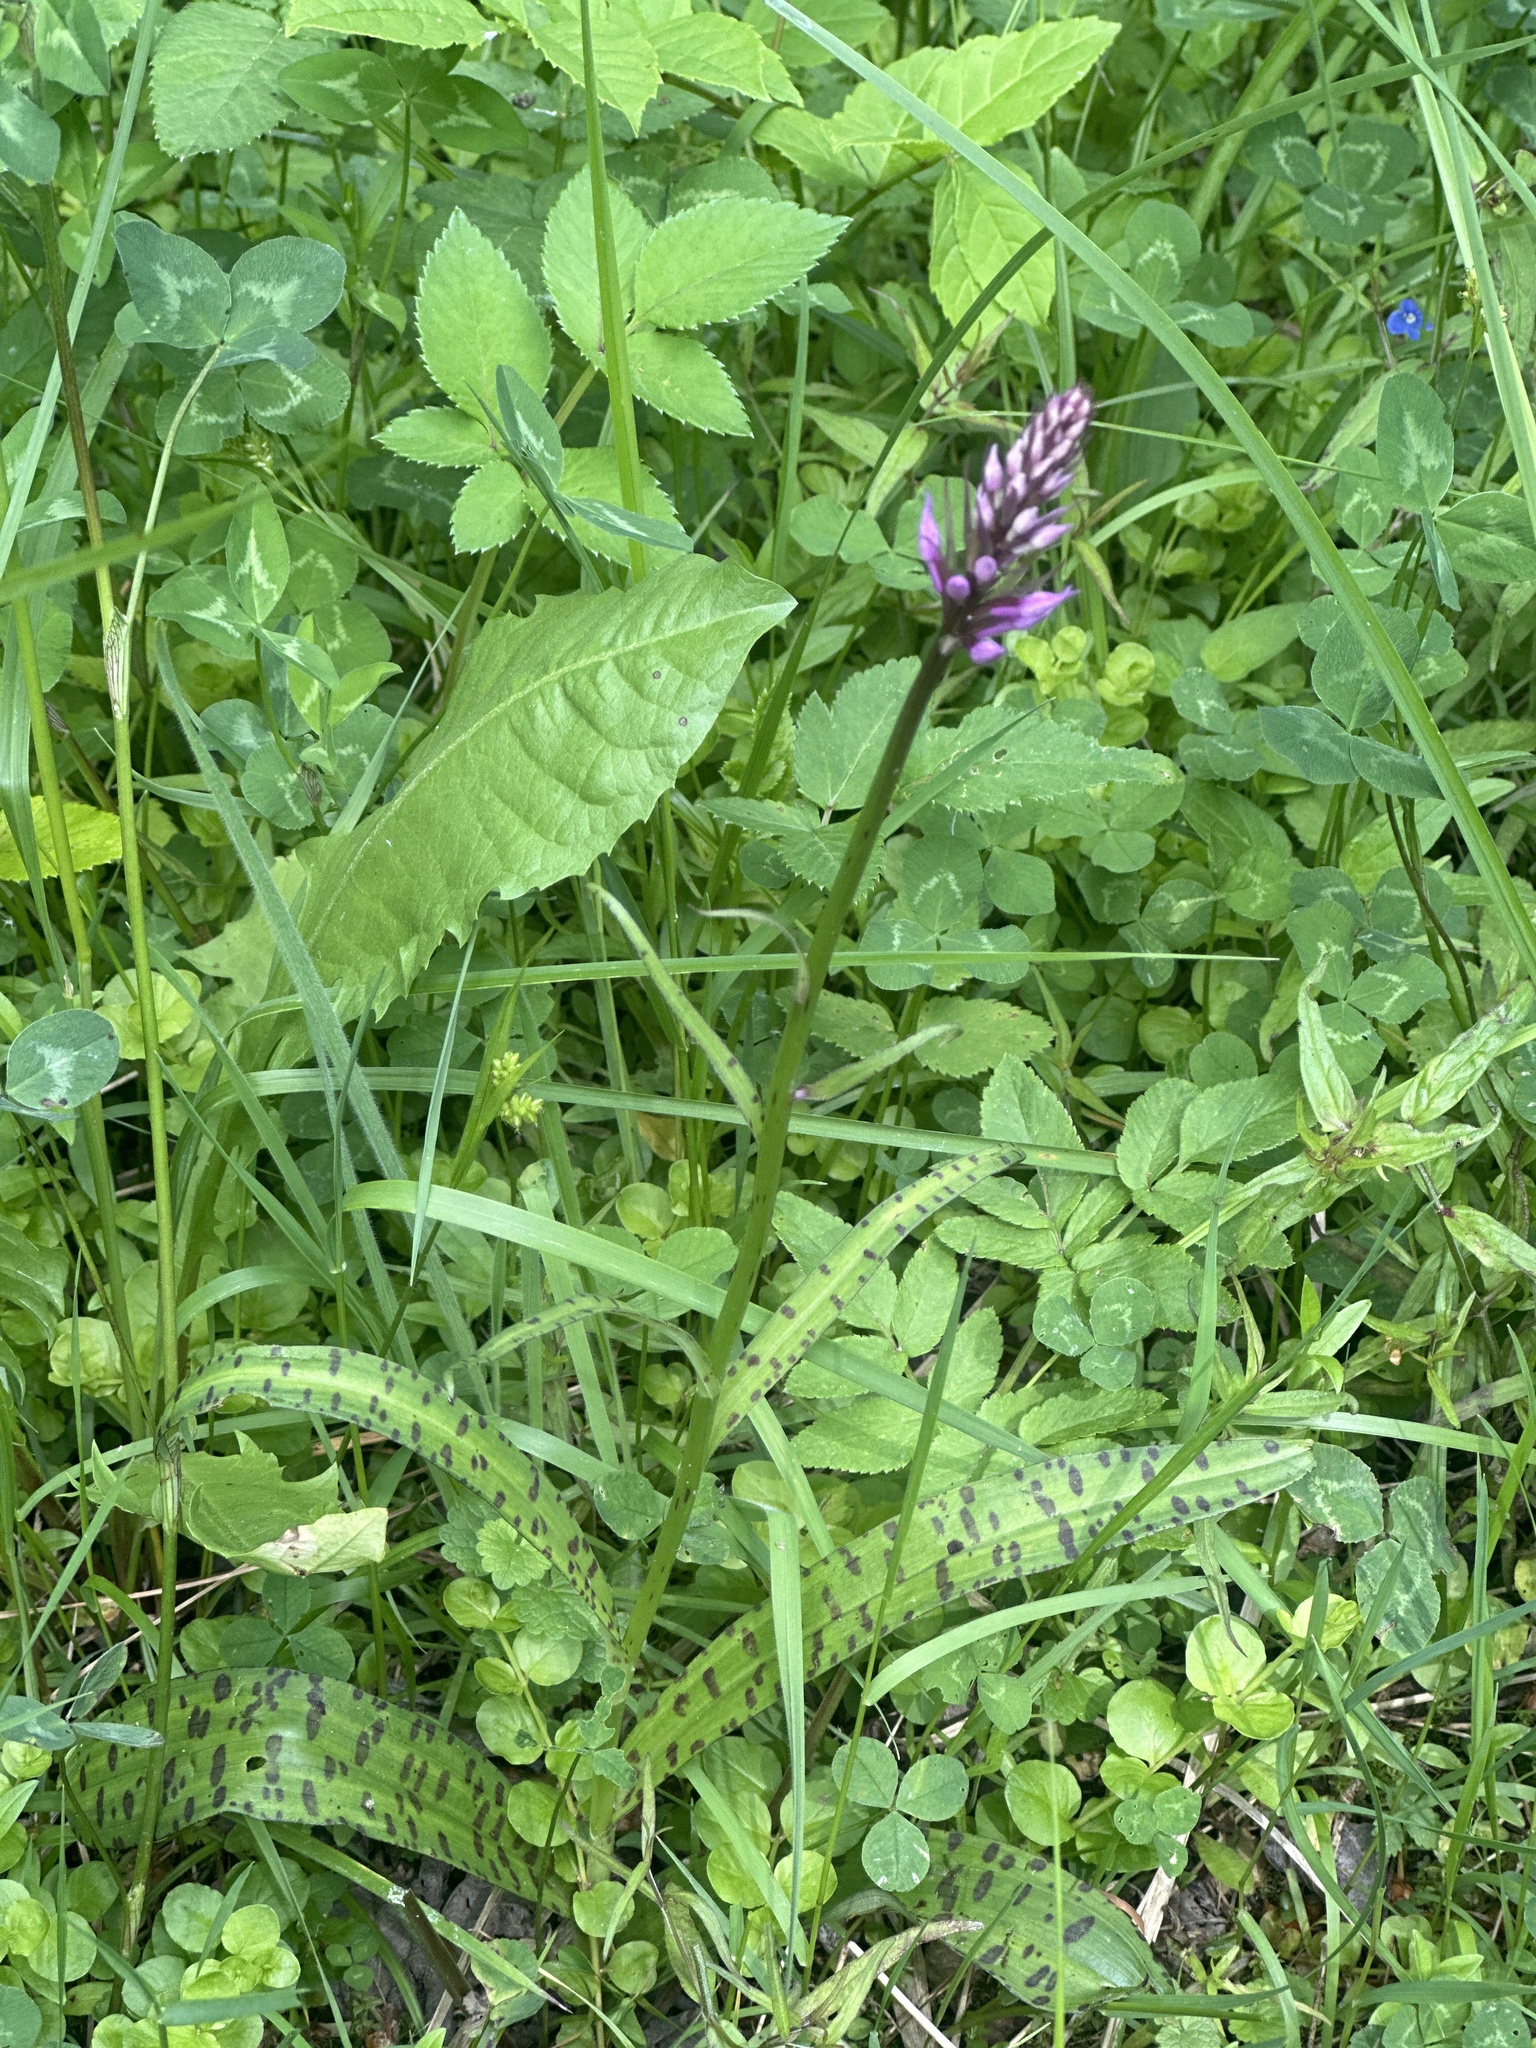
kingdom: Plantae
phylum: Tracheophyta
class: Liliopsida
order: Asparagales
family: Orchidaceae
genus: Dactylorhiza
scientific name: Dactylorhiza maculata
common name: Heath spotted-orchid
